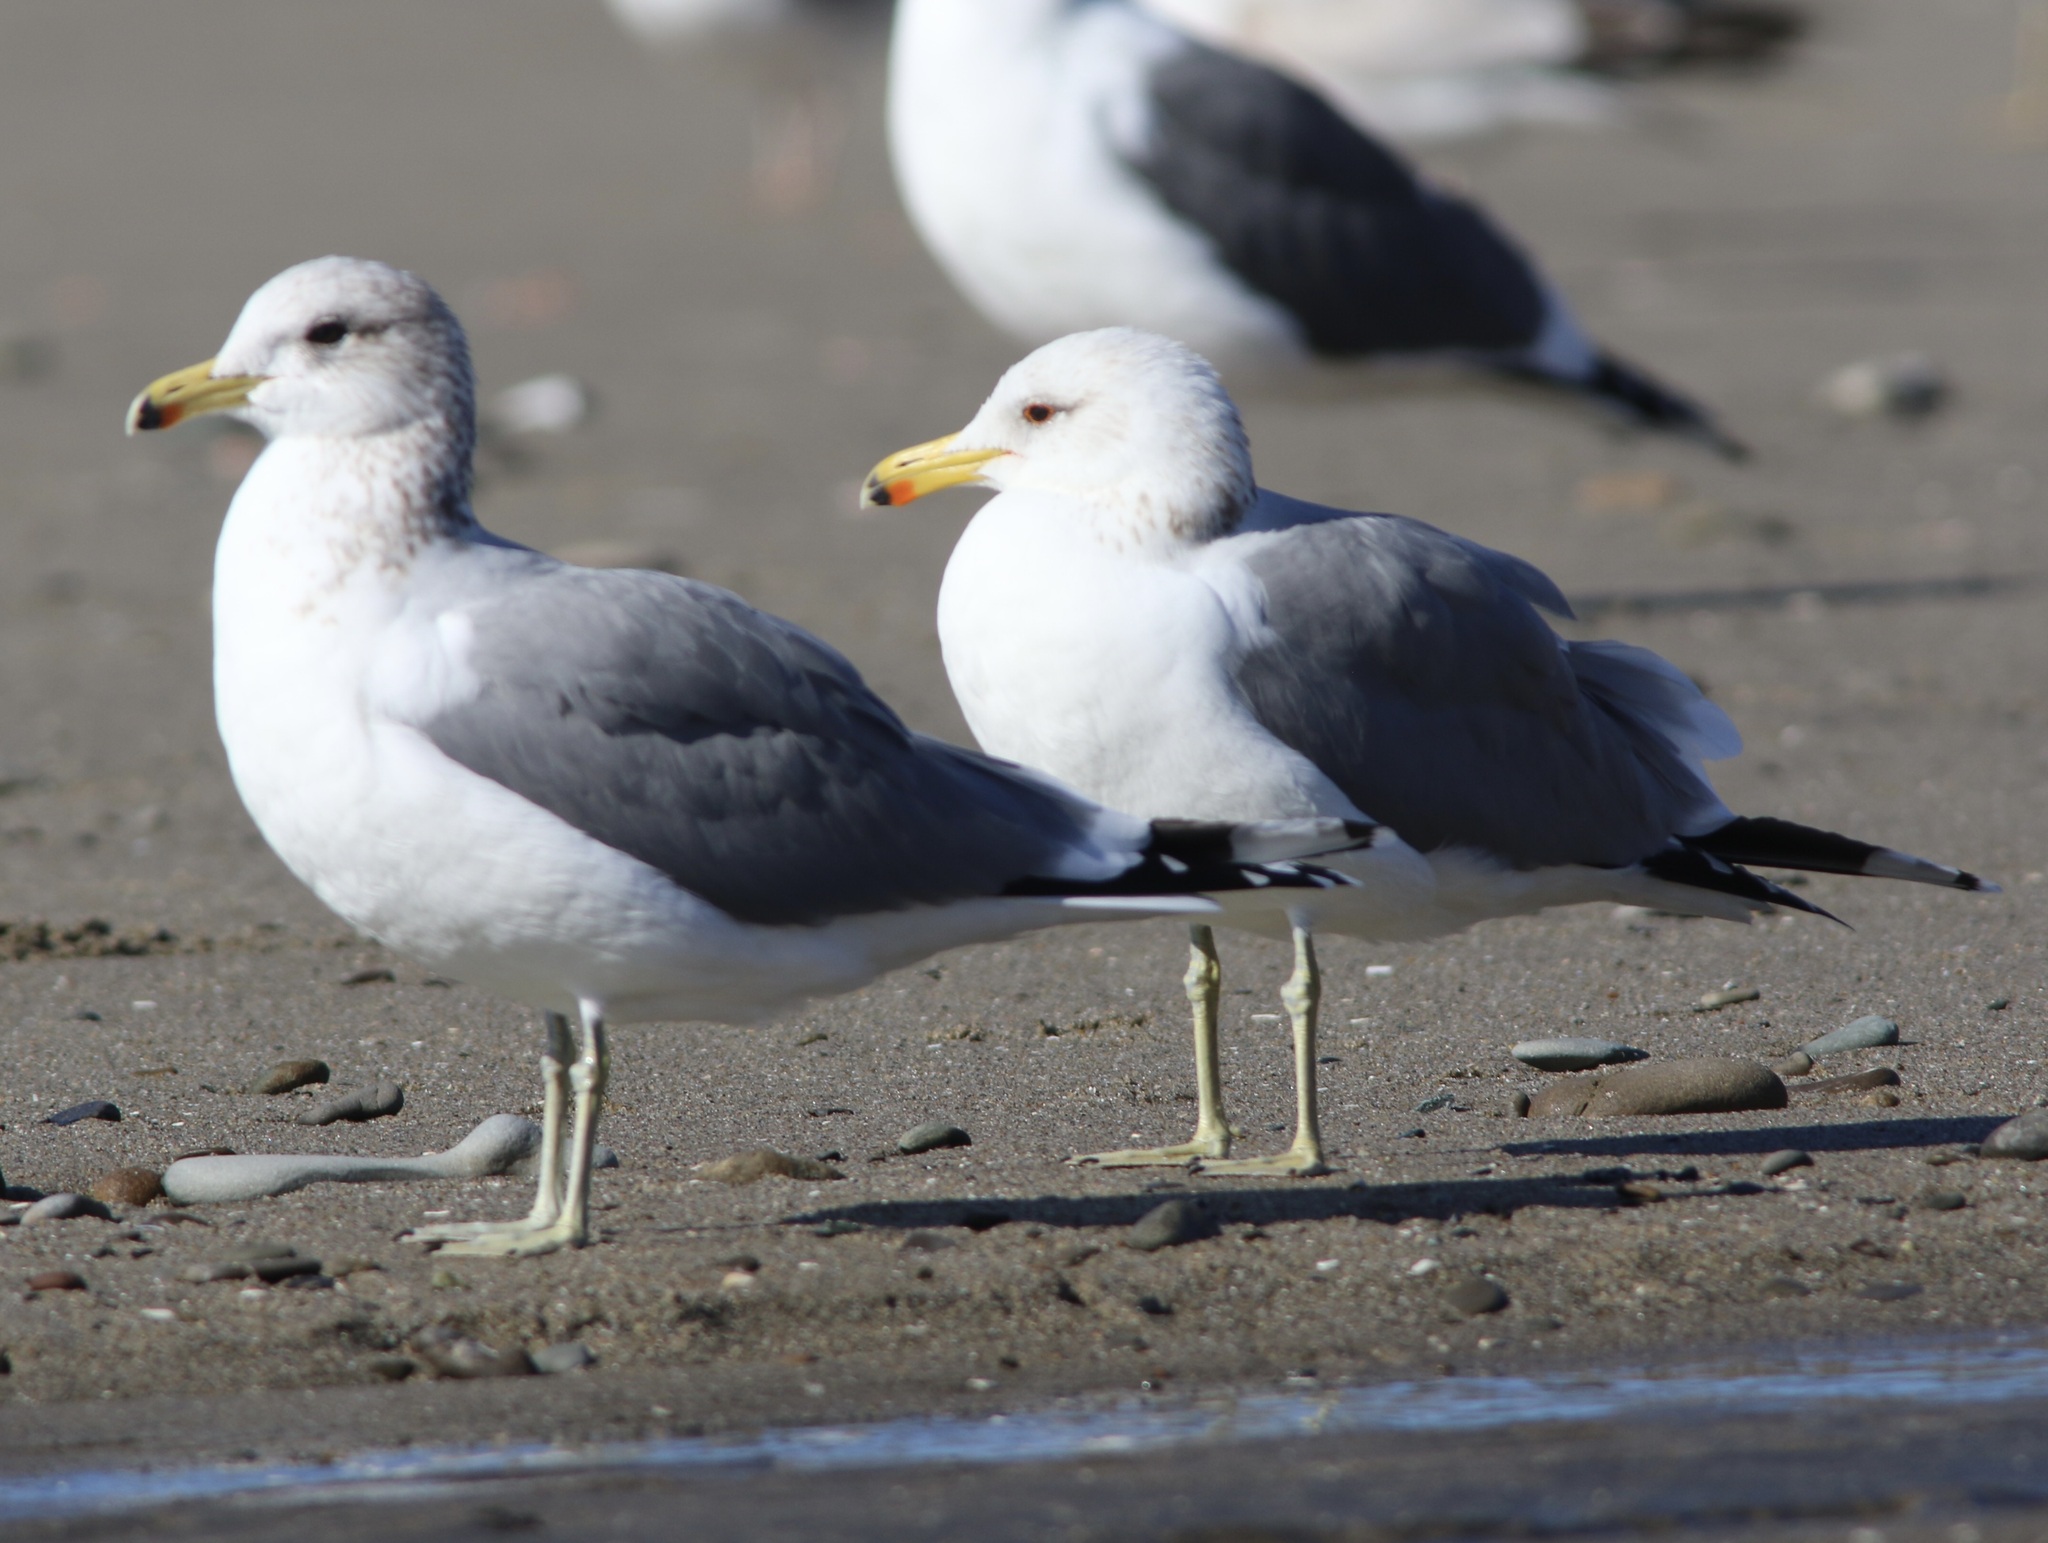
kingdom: Animalia
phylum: Chordata
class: Aves
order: Charadriiformes
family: Laridae
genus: Larus
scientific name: Larus californicus
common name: California gull
